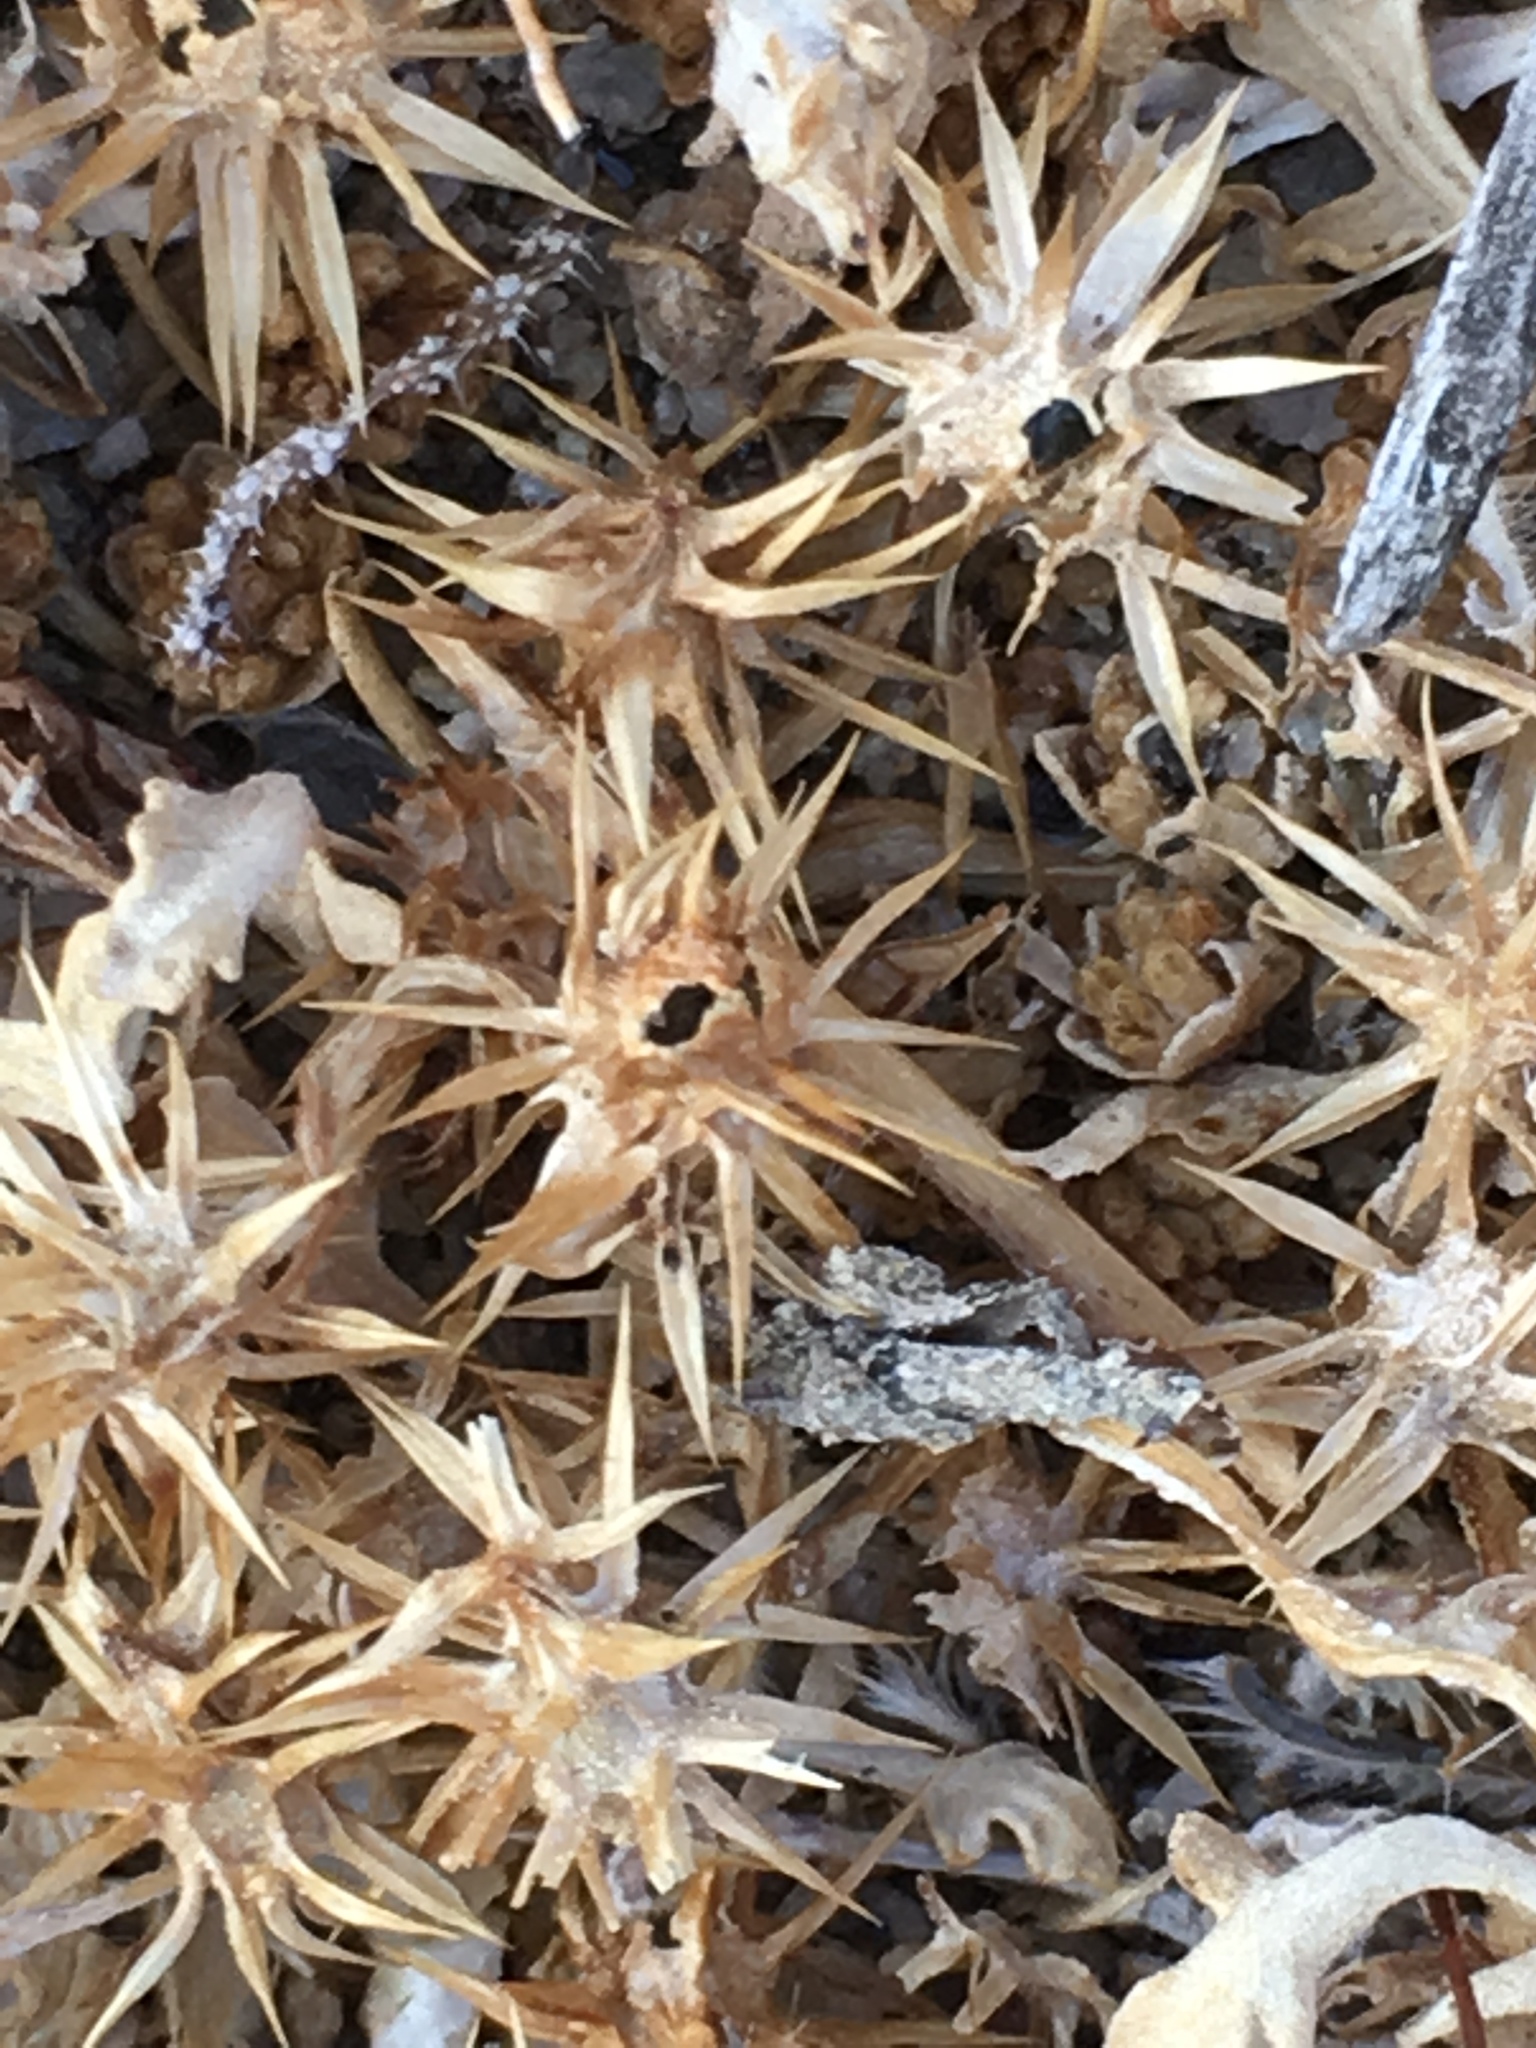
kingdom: Plantae
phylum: Tracheophyta
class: Magnoliopsida
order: Asterales
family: Asteraceae
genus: Ambrosia
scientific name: Ambrosia dumosa
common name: Bur-sage
